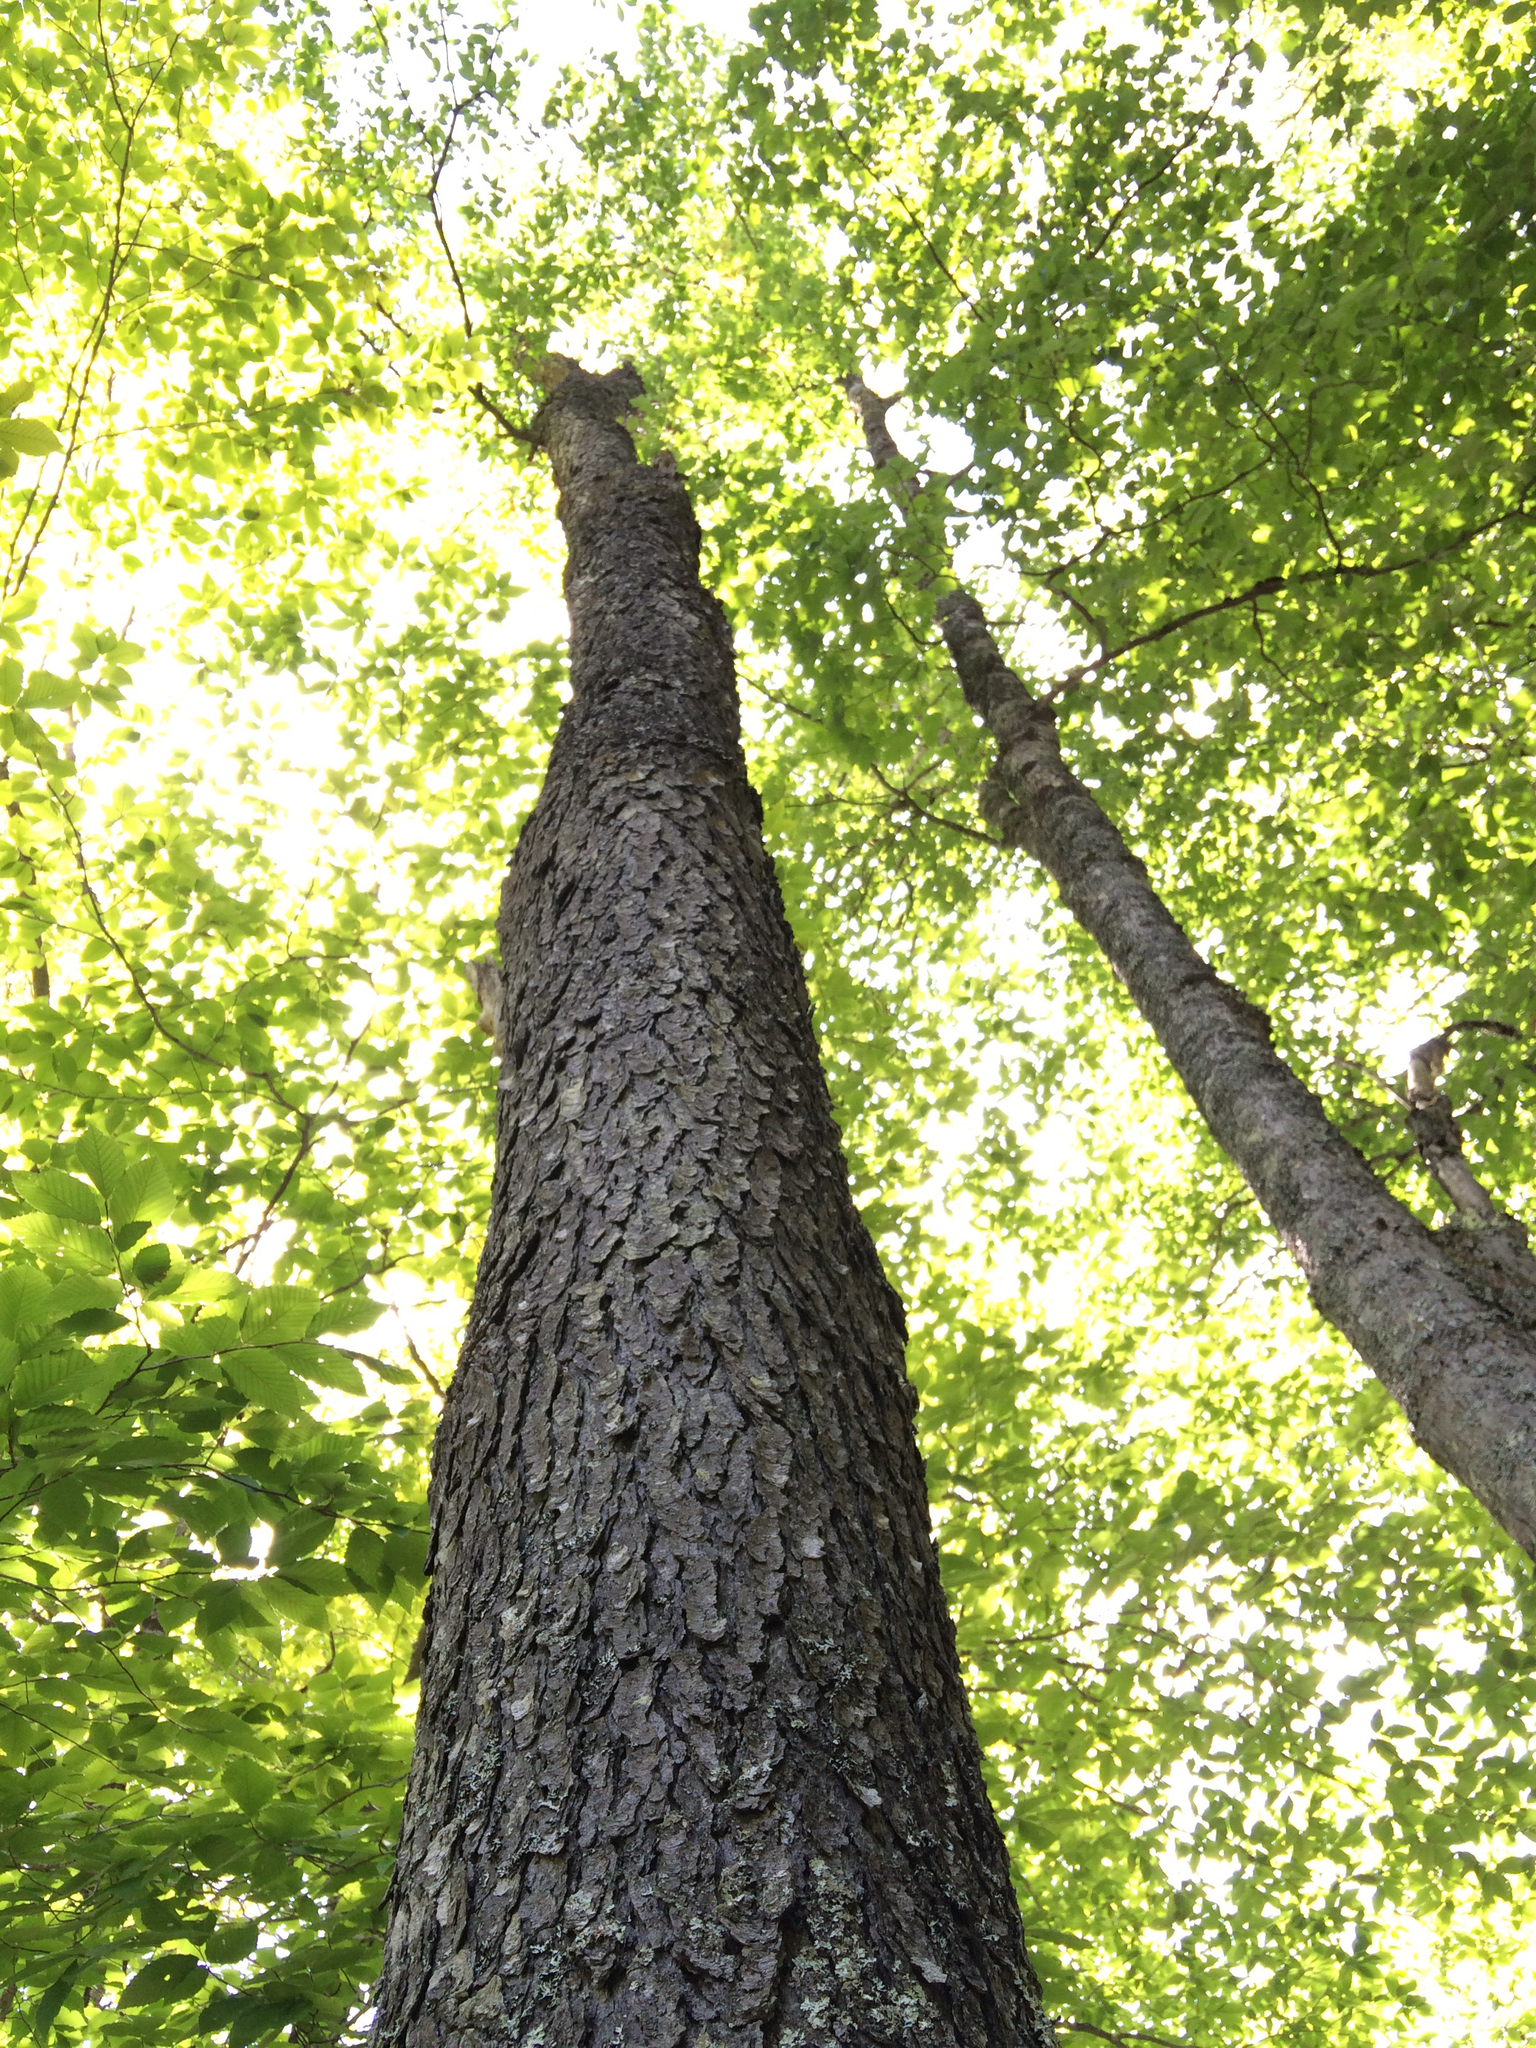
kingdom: Plantae
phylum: Tracheophyta
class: Magnoliopsida
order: Rosales
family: Rosaceae
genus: Prunus
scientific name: Prunus serotina
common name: Black cherry
